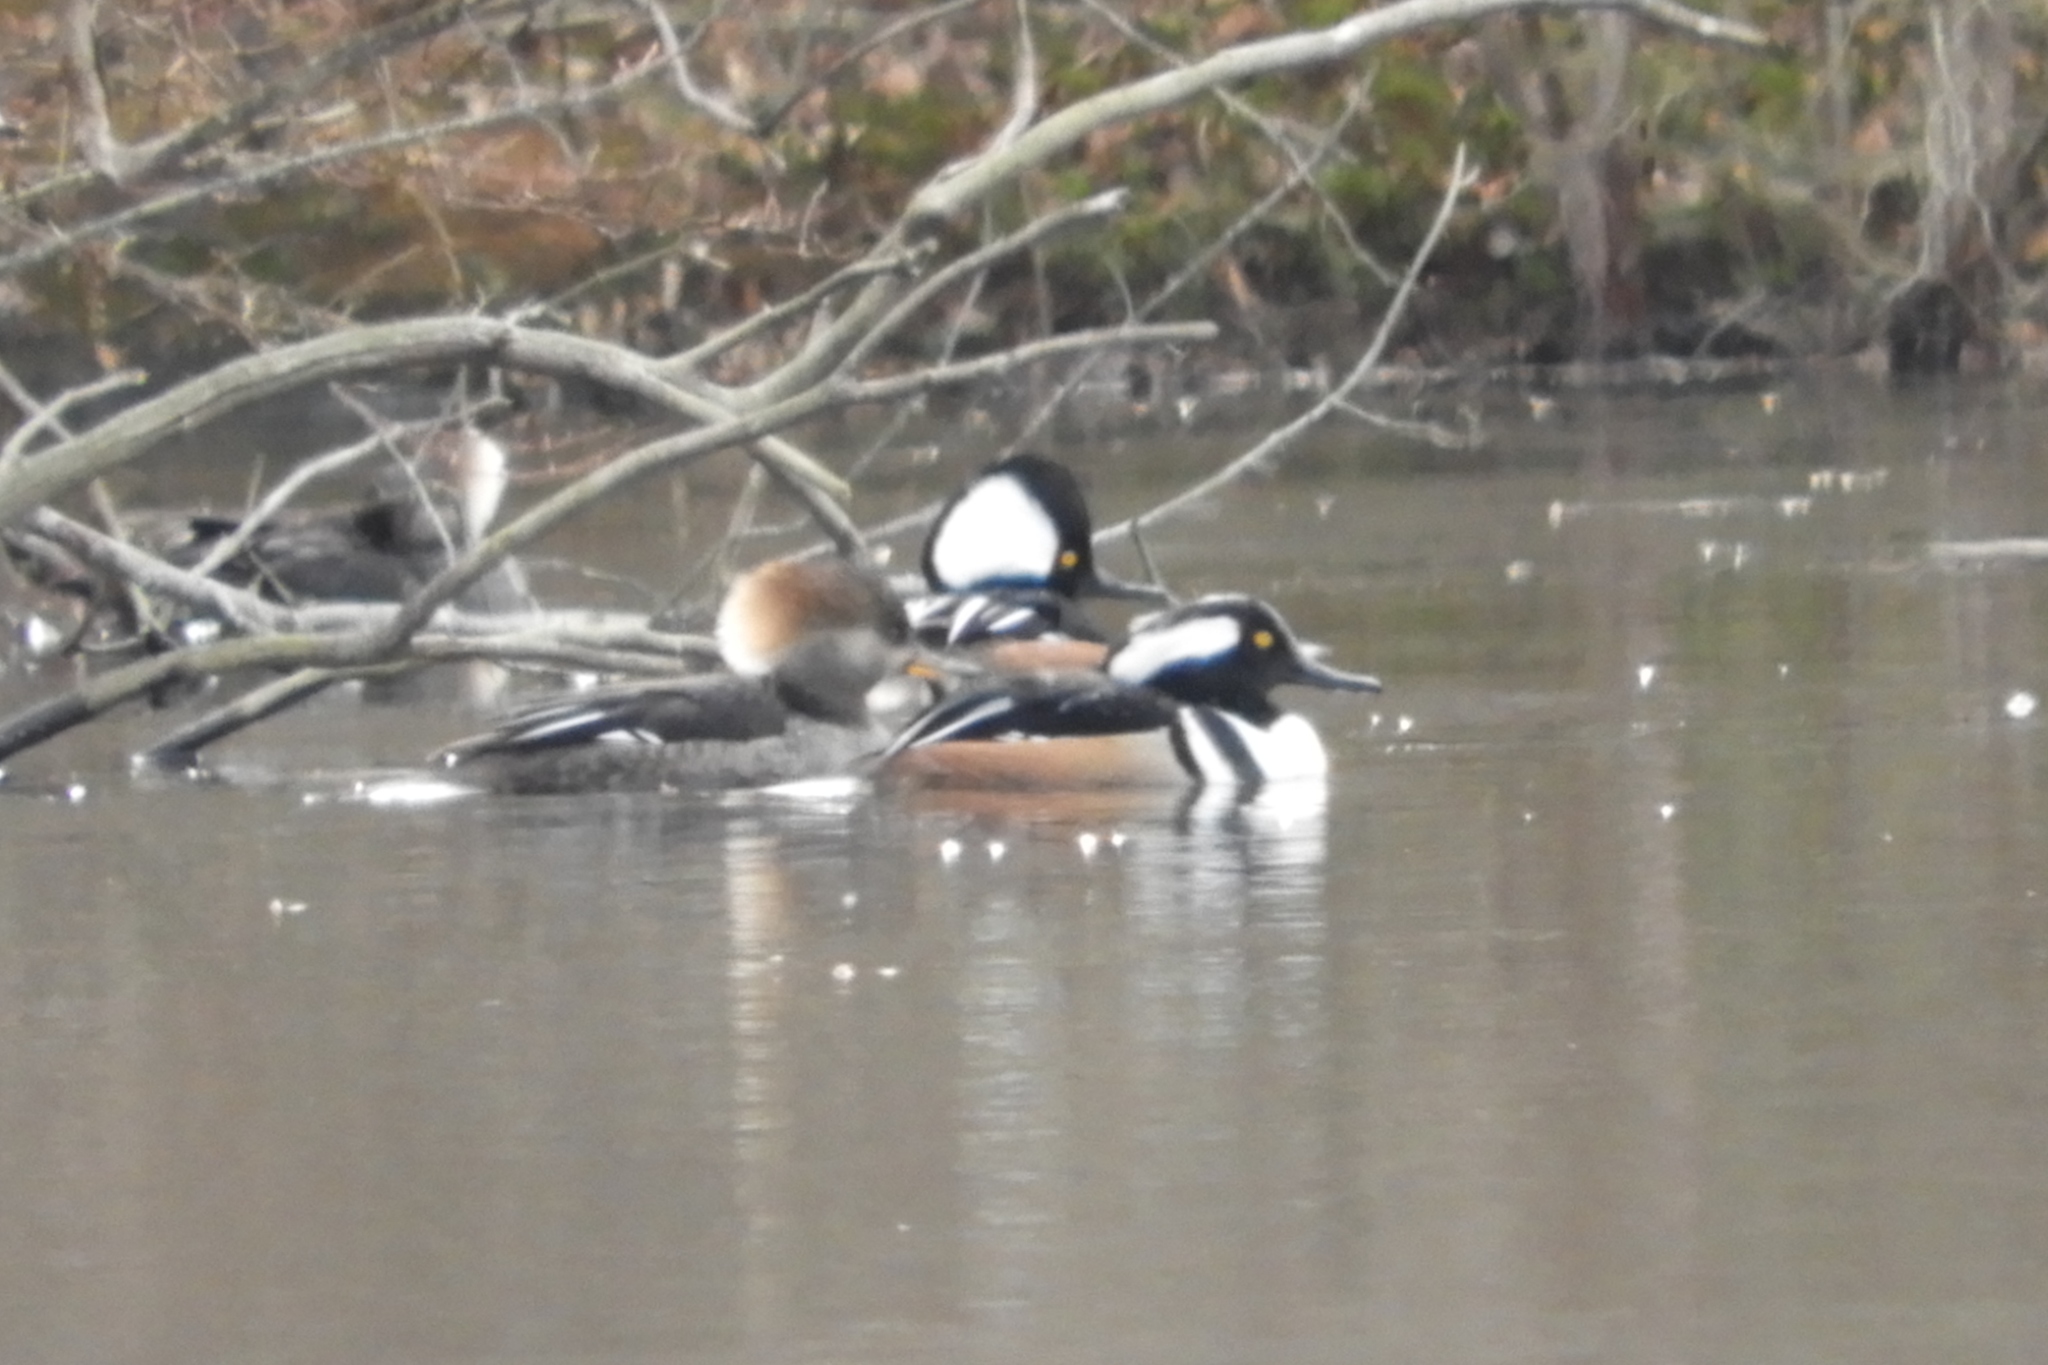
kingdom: Animalia
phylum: Chordata
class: Aves
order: Anseriformes
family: Anatidae
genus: Lophodytes
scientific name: Lophodytes cucullatus
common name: Hooded merganser
